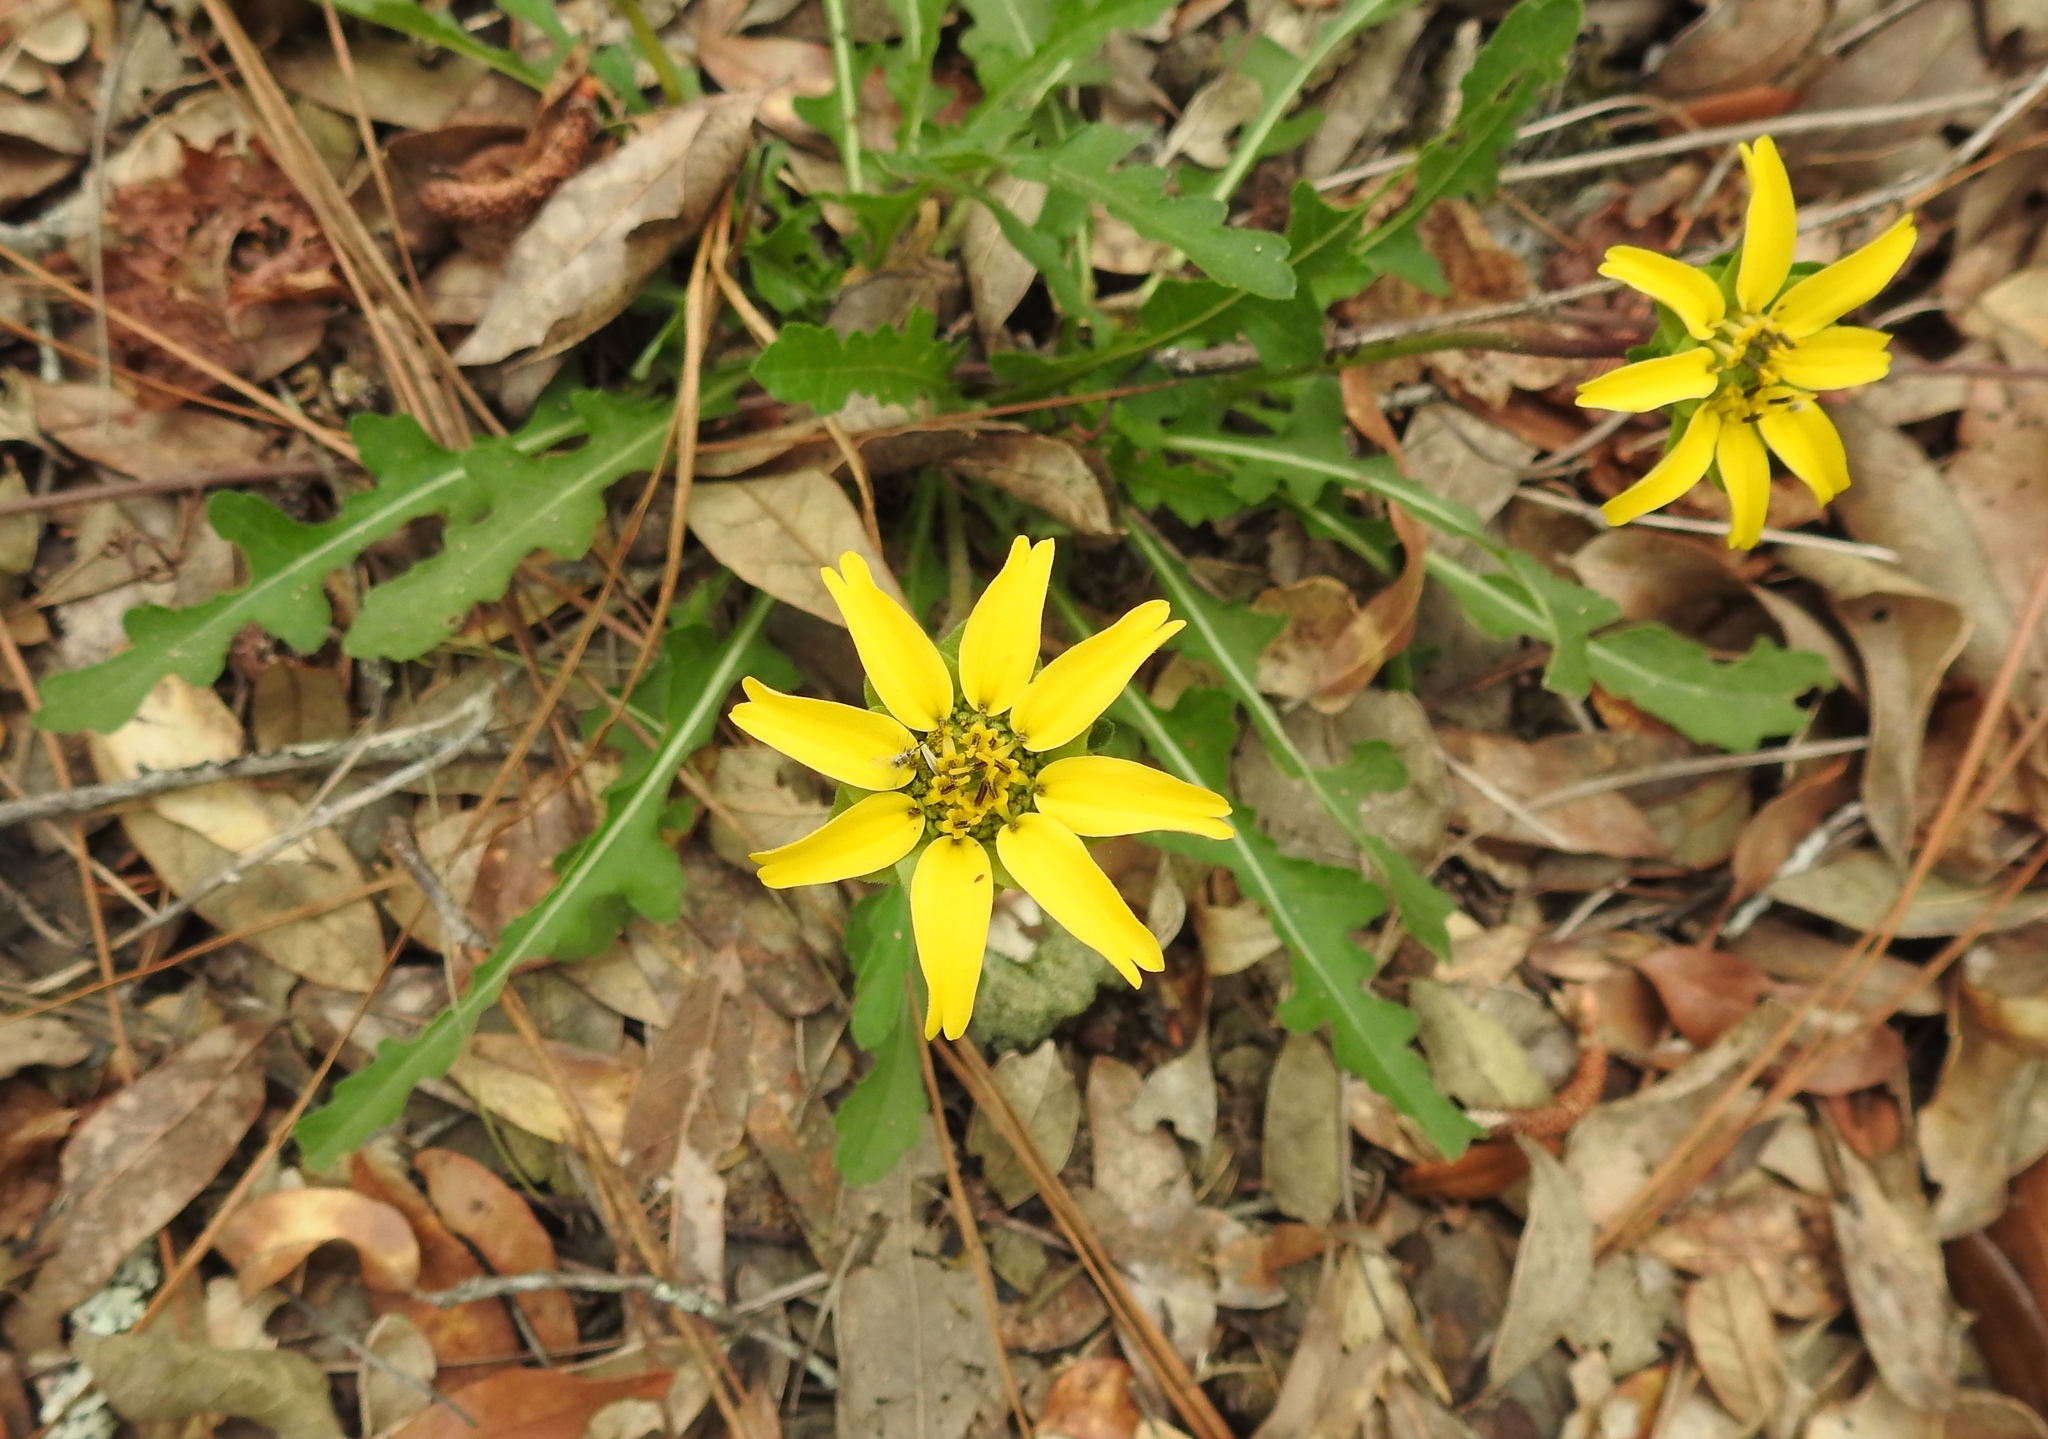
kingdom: Plantae
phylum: Tracheophyta
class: Magnoliopsida
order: Asterales
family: Asteraceae
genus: Berlandiera
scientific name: Berlandiera subacaulis
